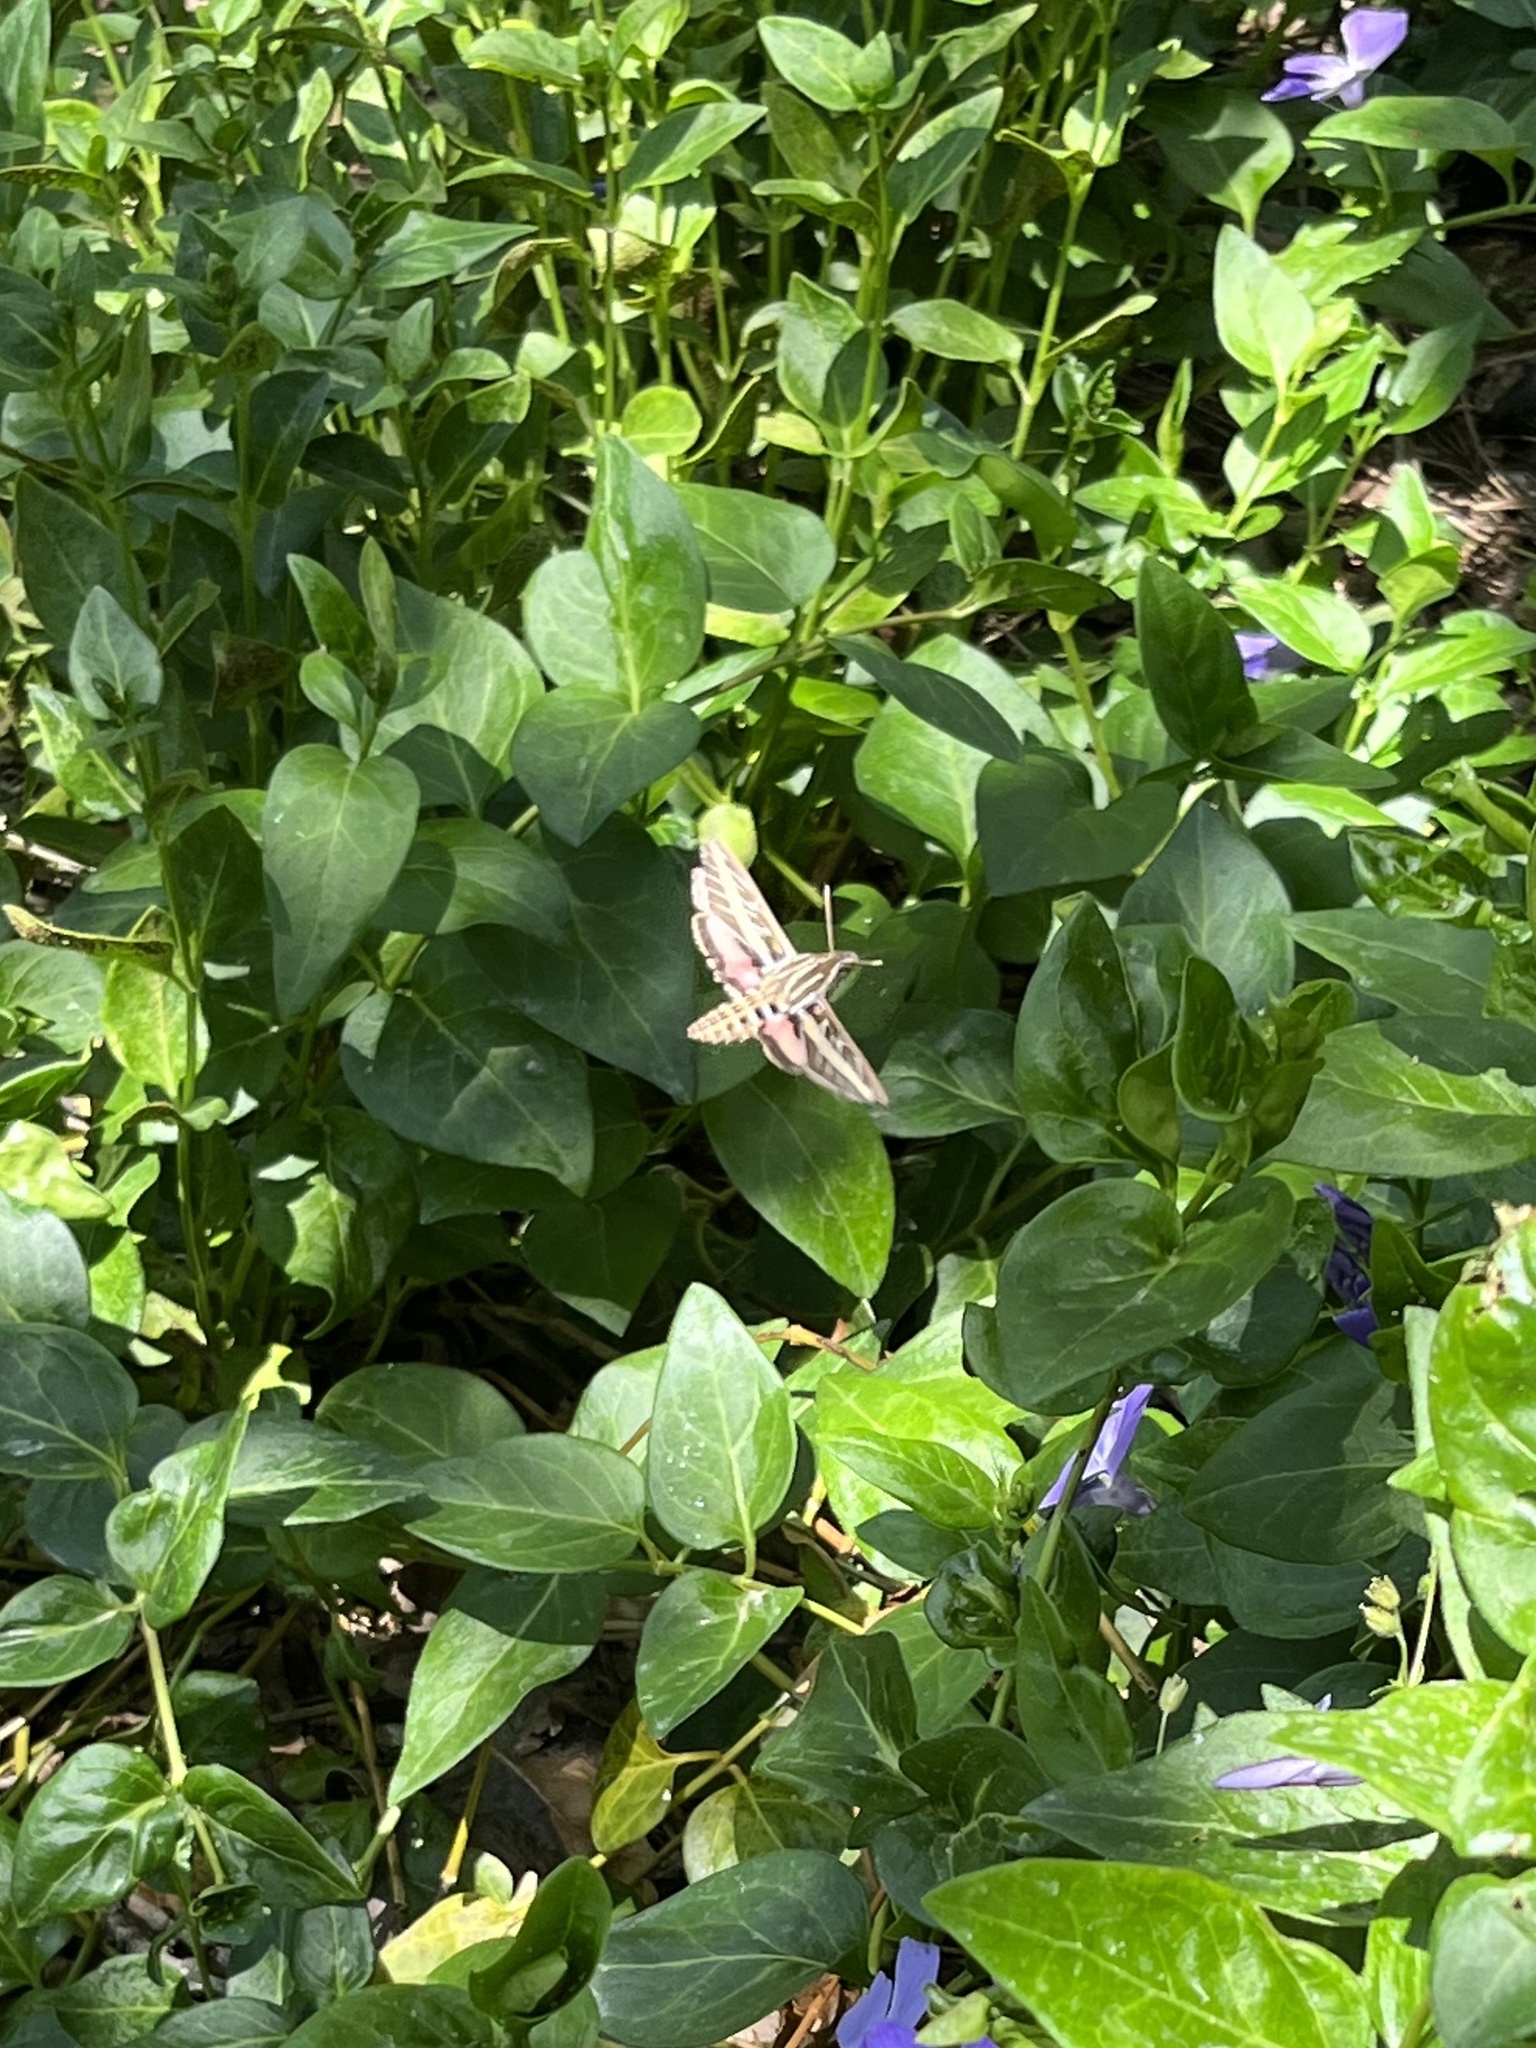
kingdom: Animalia
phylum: Arthropoda
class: Insecta
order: Lepidoptera
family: Sphingidae
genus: Hyles
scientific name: Hyles lineata
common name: White-lined sphinx
